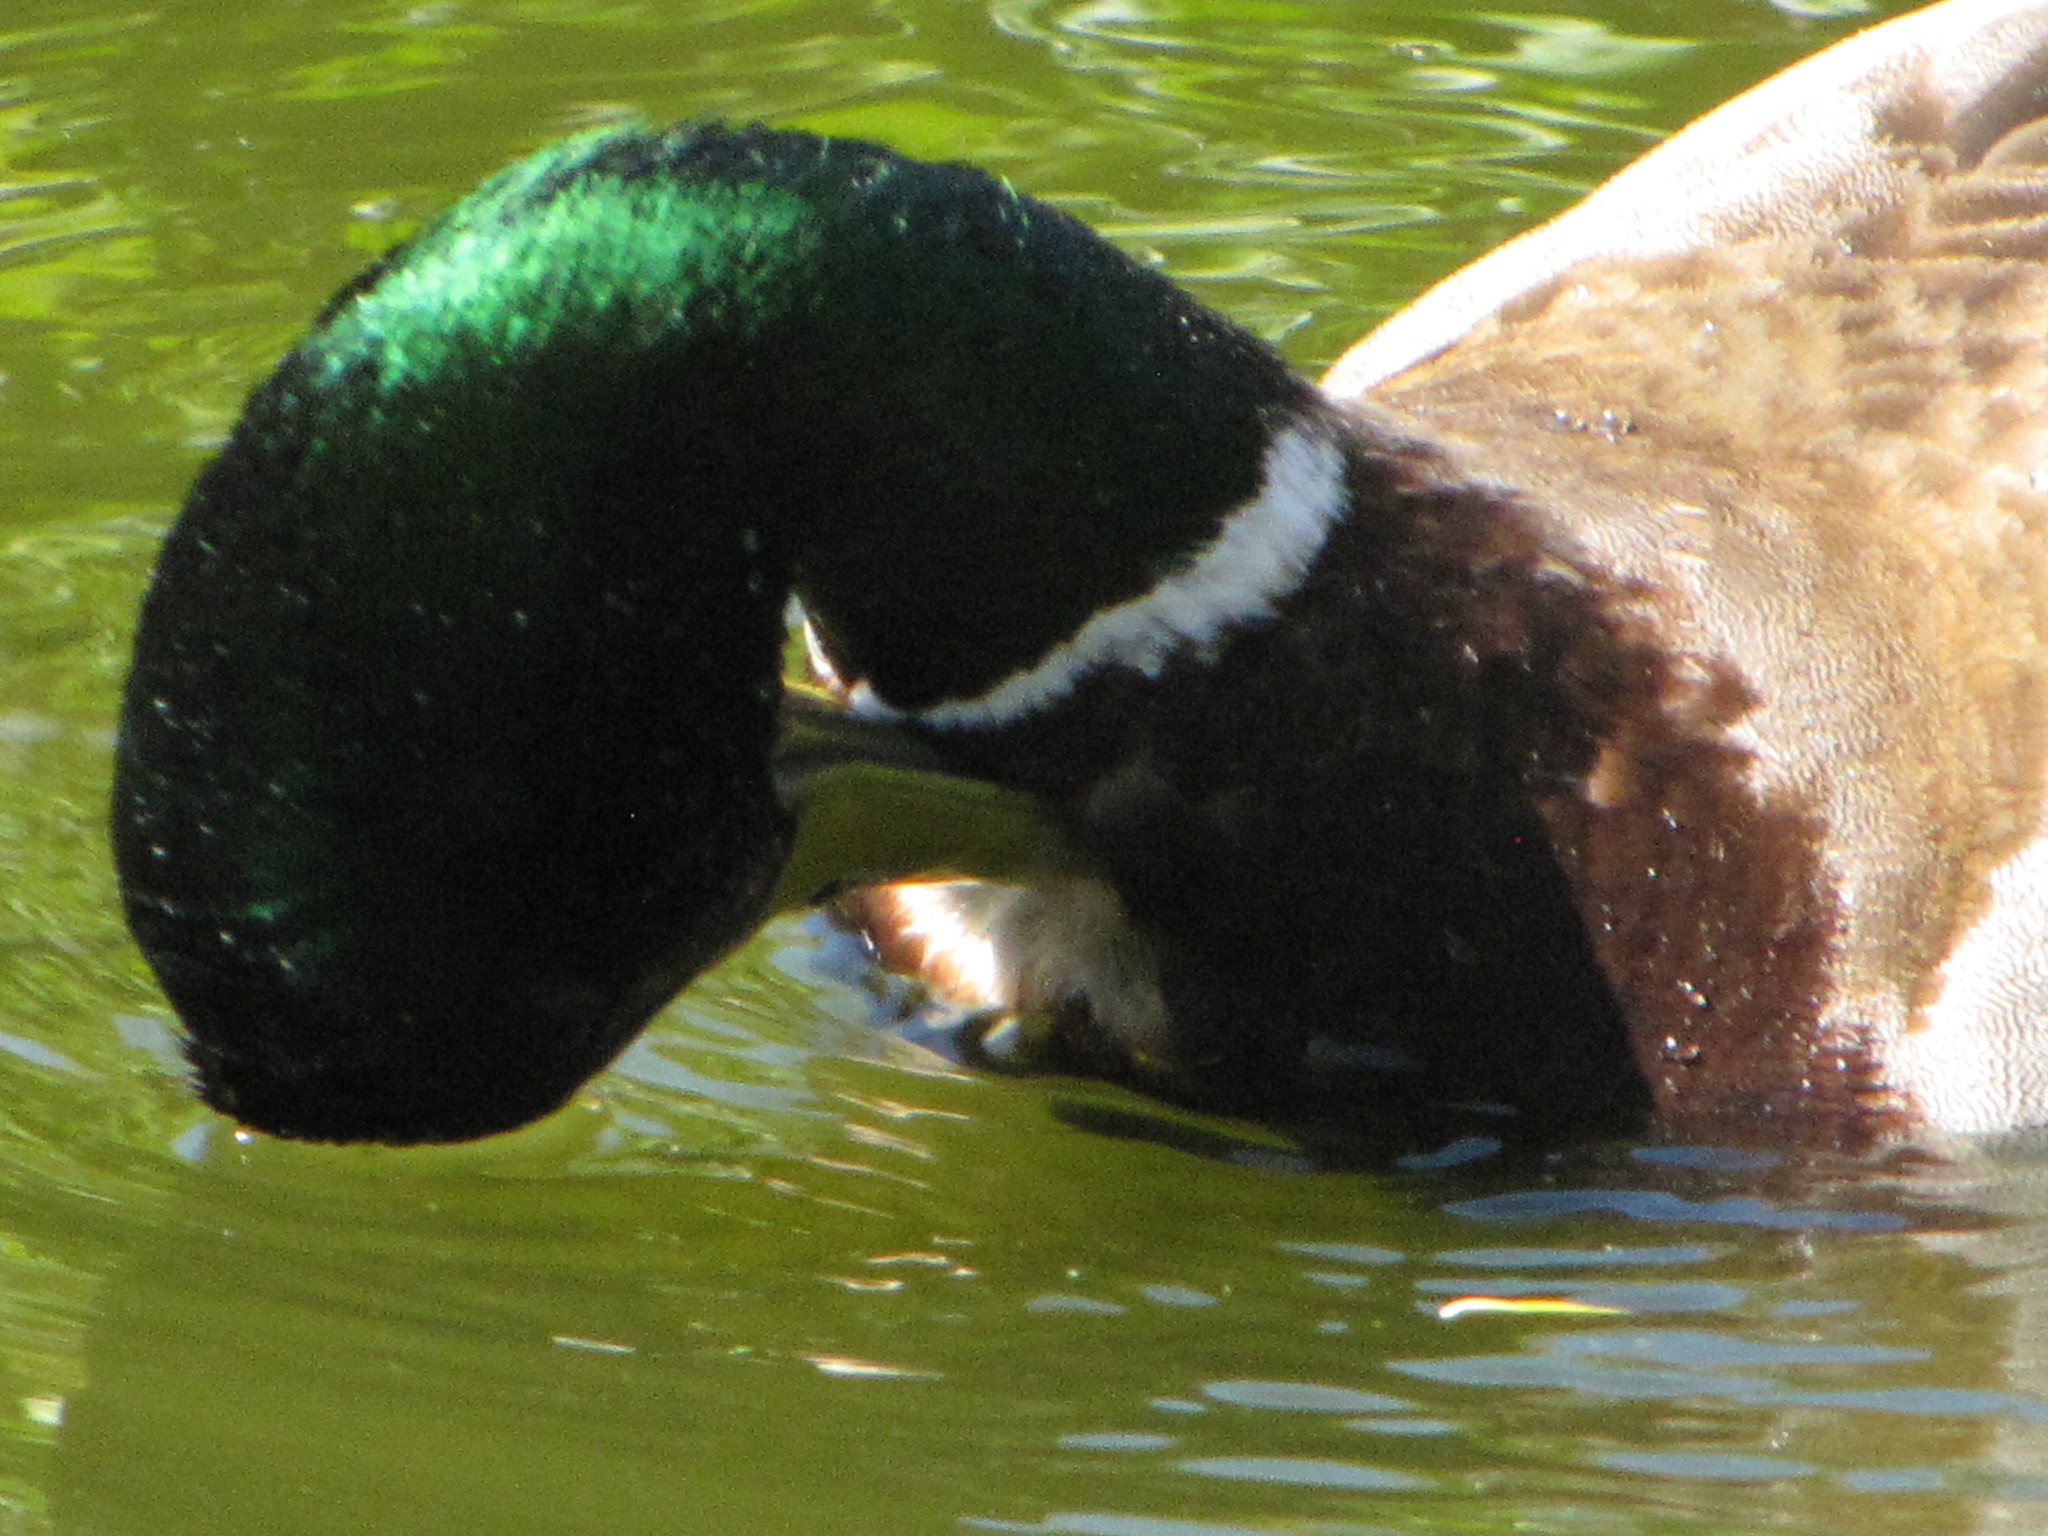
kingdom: Animalia
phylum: Chordata
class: Aves
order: Anseriformes
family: Anatidae
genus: Anas
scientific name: Anas platyrhynchos
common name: Mallard
